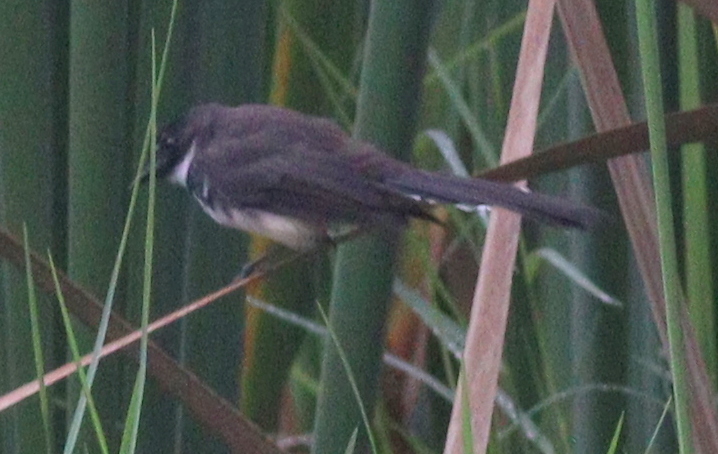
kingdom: Animalia
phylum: Chordata
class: Aves
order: Passeriformes
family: Rhipiduridae
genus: Rhipidura
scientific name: Rhipidura javanica
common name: Pied fantail
